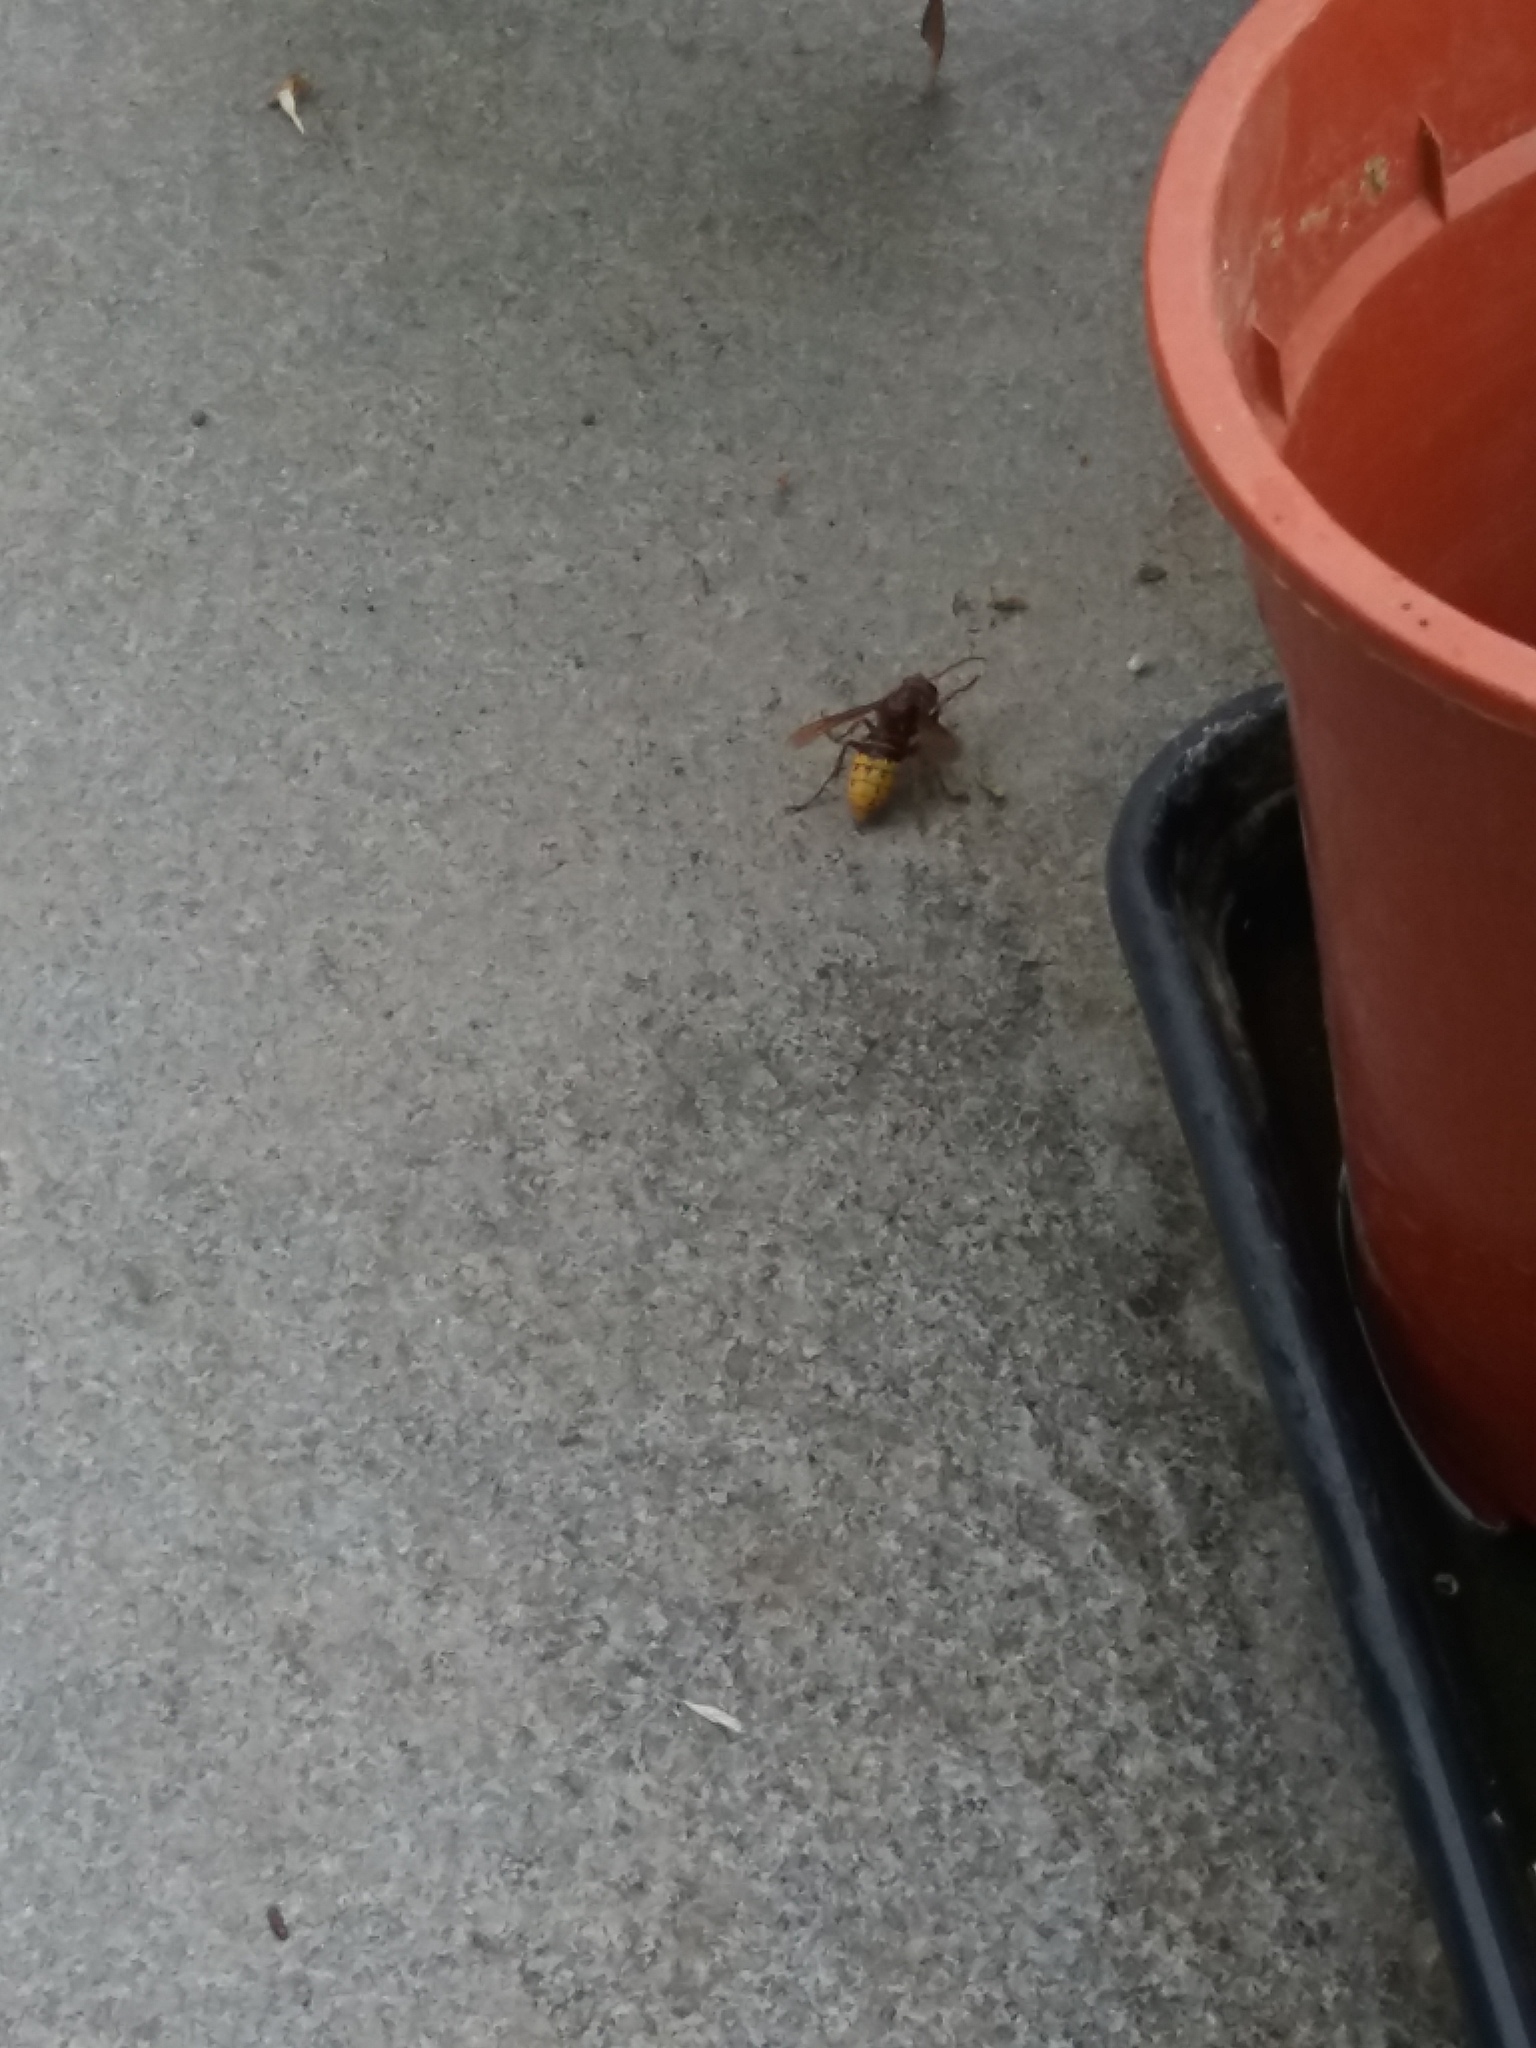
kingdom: Animalia
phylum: Arthropoda
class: Insecta
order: Hymenoptera
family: Vespidae
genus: Vespa
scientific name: Vespa crabro
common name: Hornet
